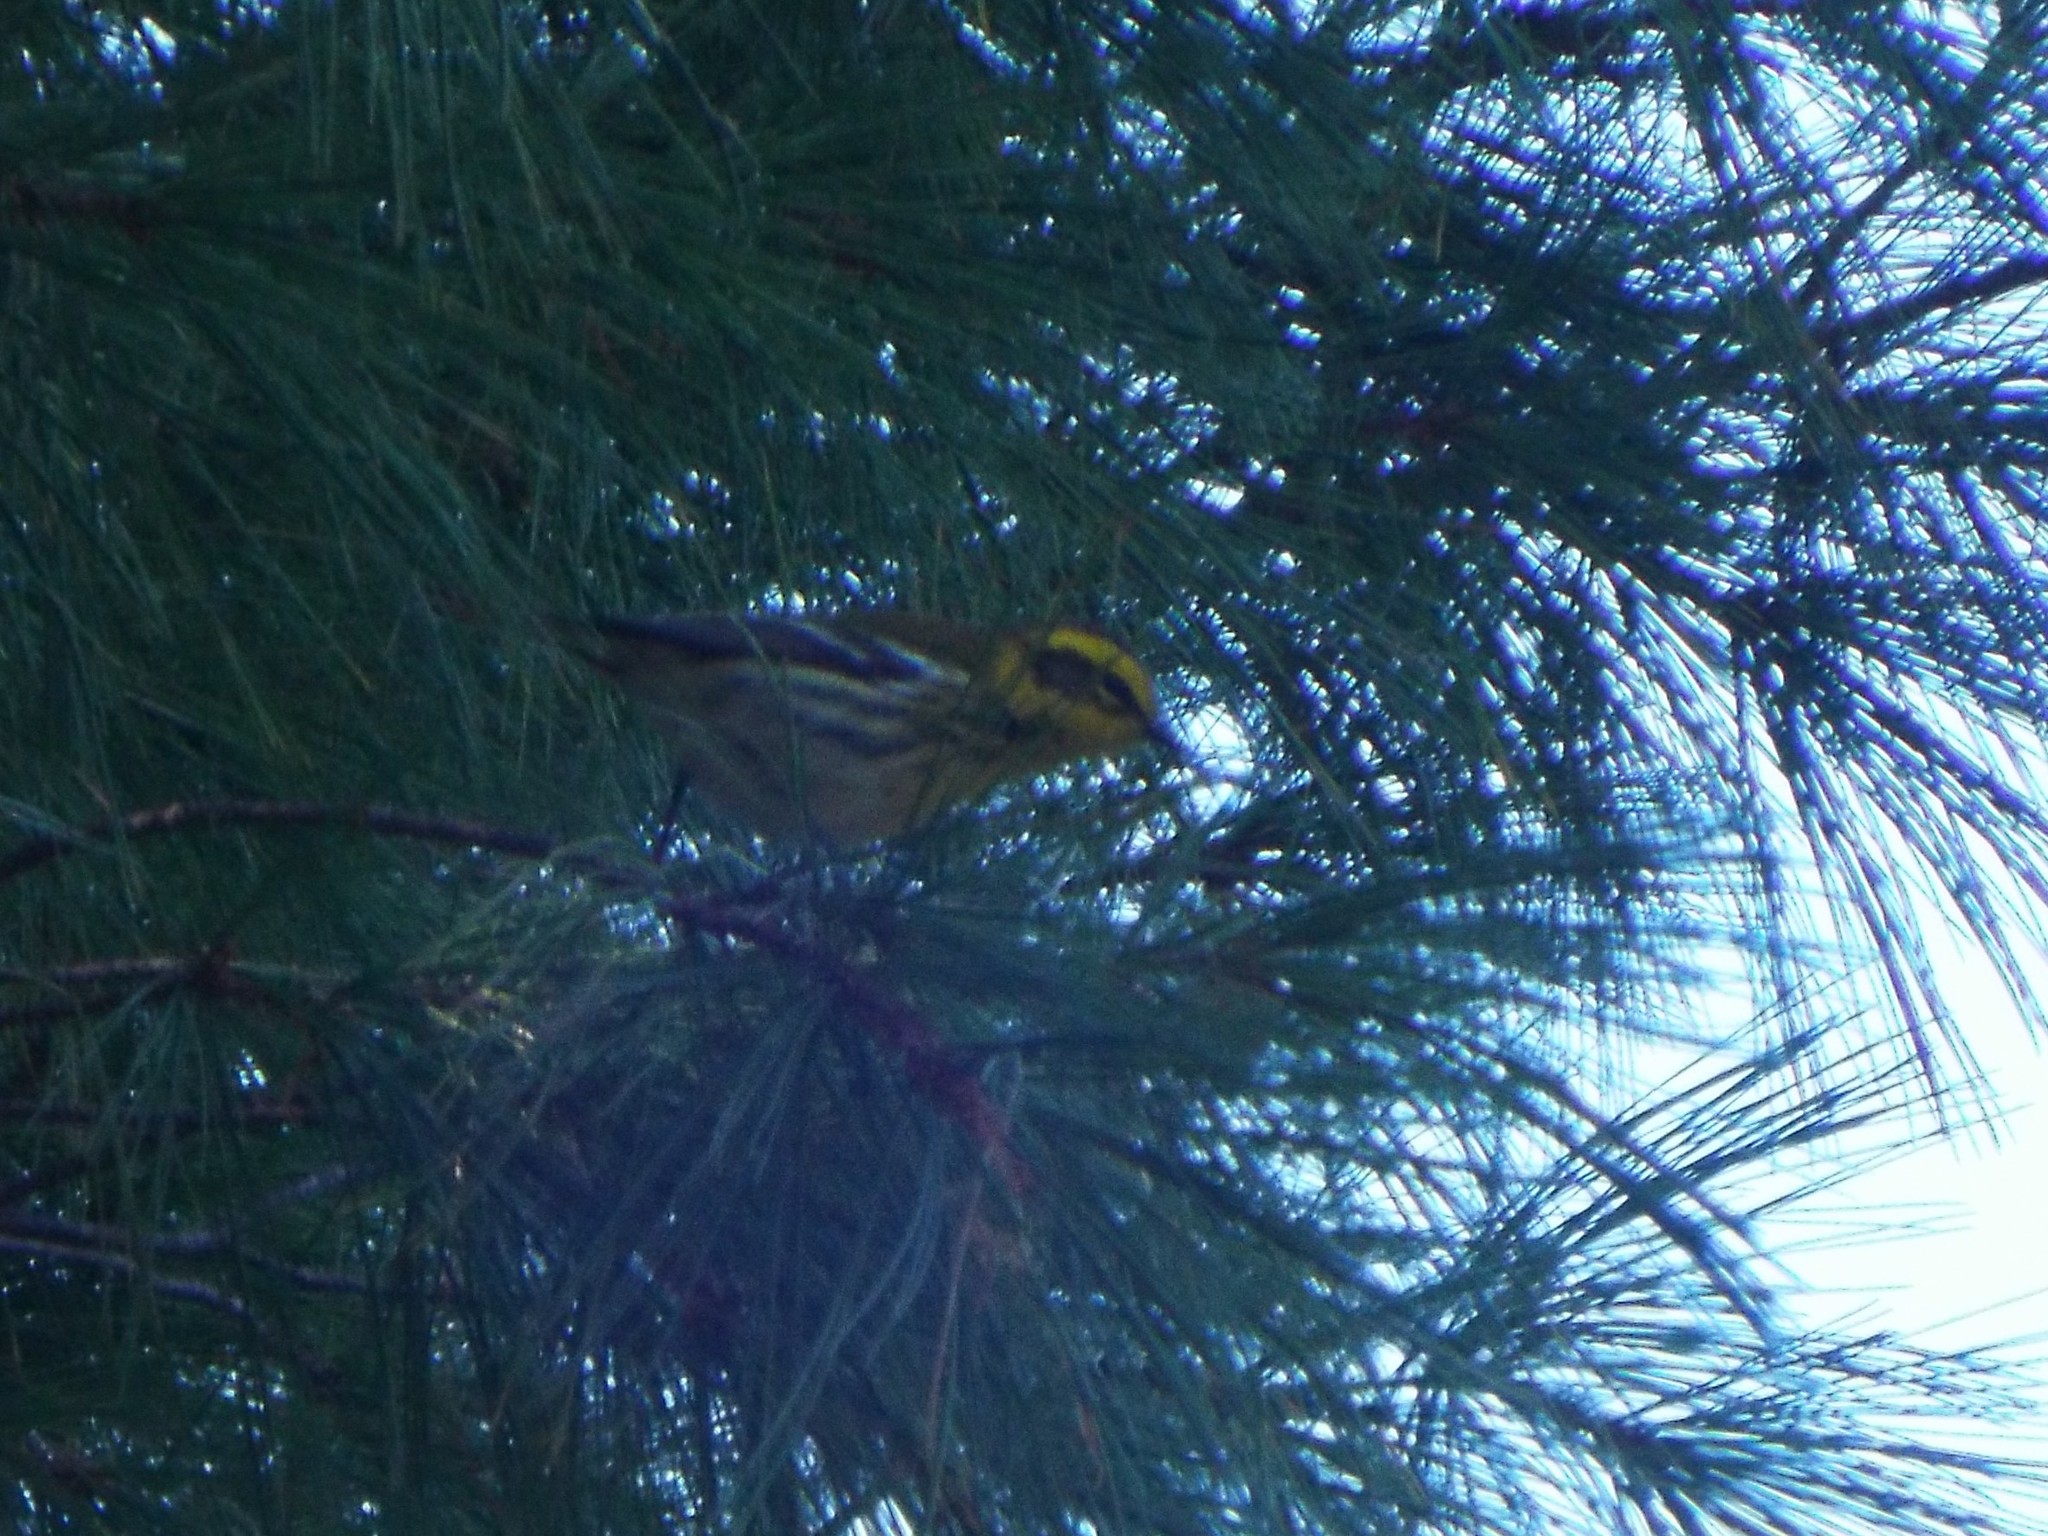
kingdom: Animalia
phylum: Chordata
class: Aves
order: Passeriformes
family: Parulidae
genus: Setophaga
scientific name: Setophaga townsendi
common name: Townsend's warbler
